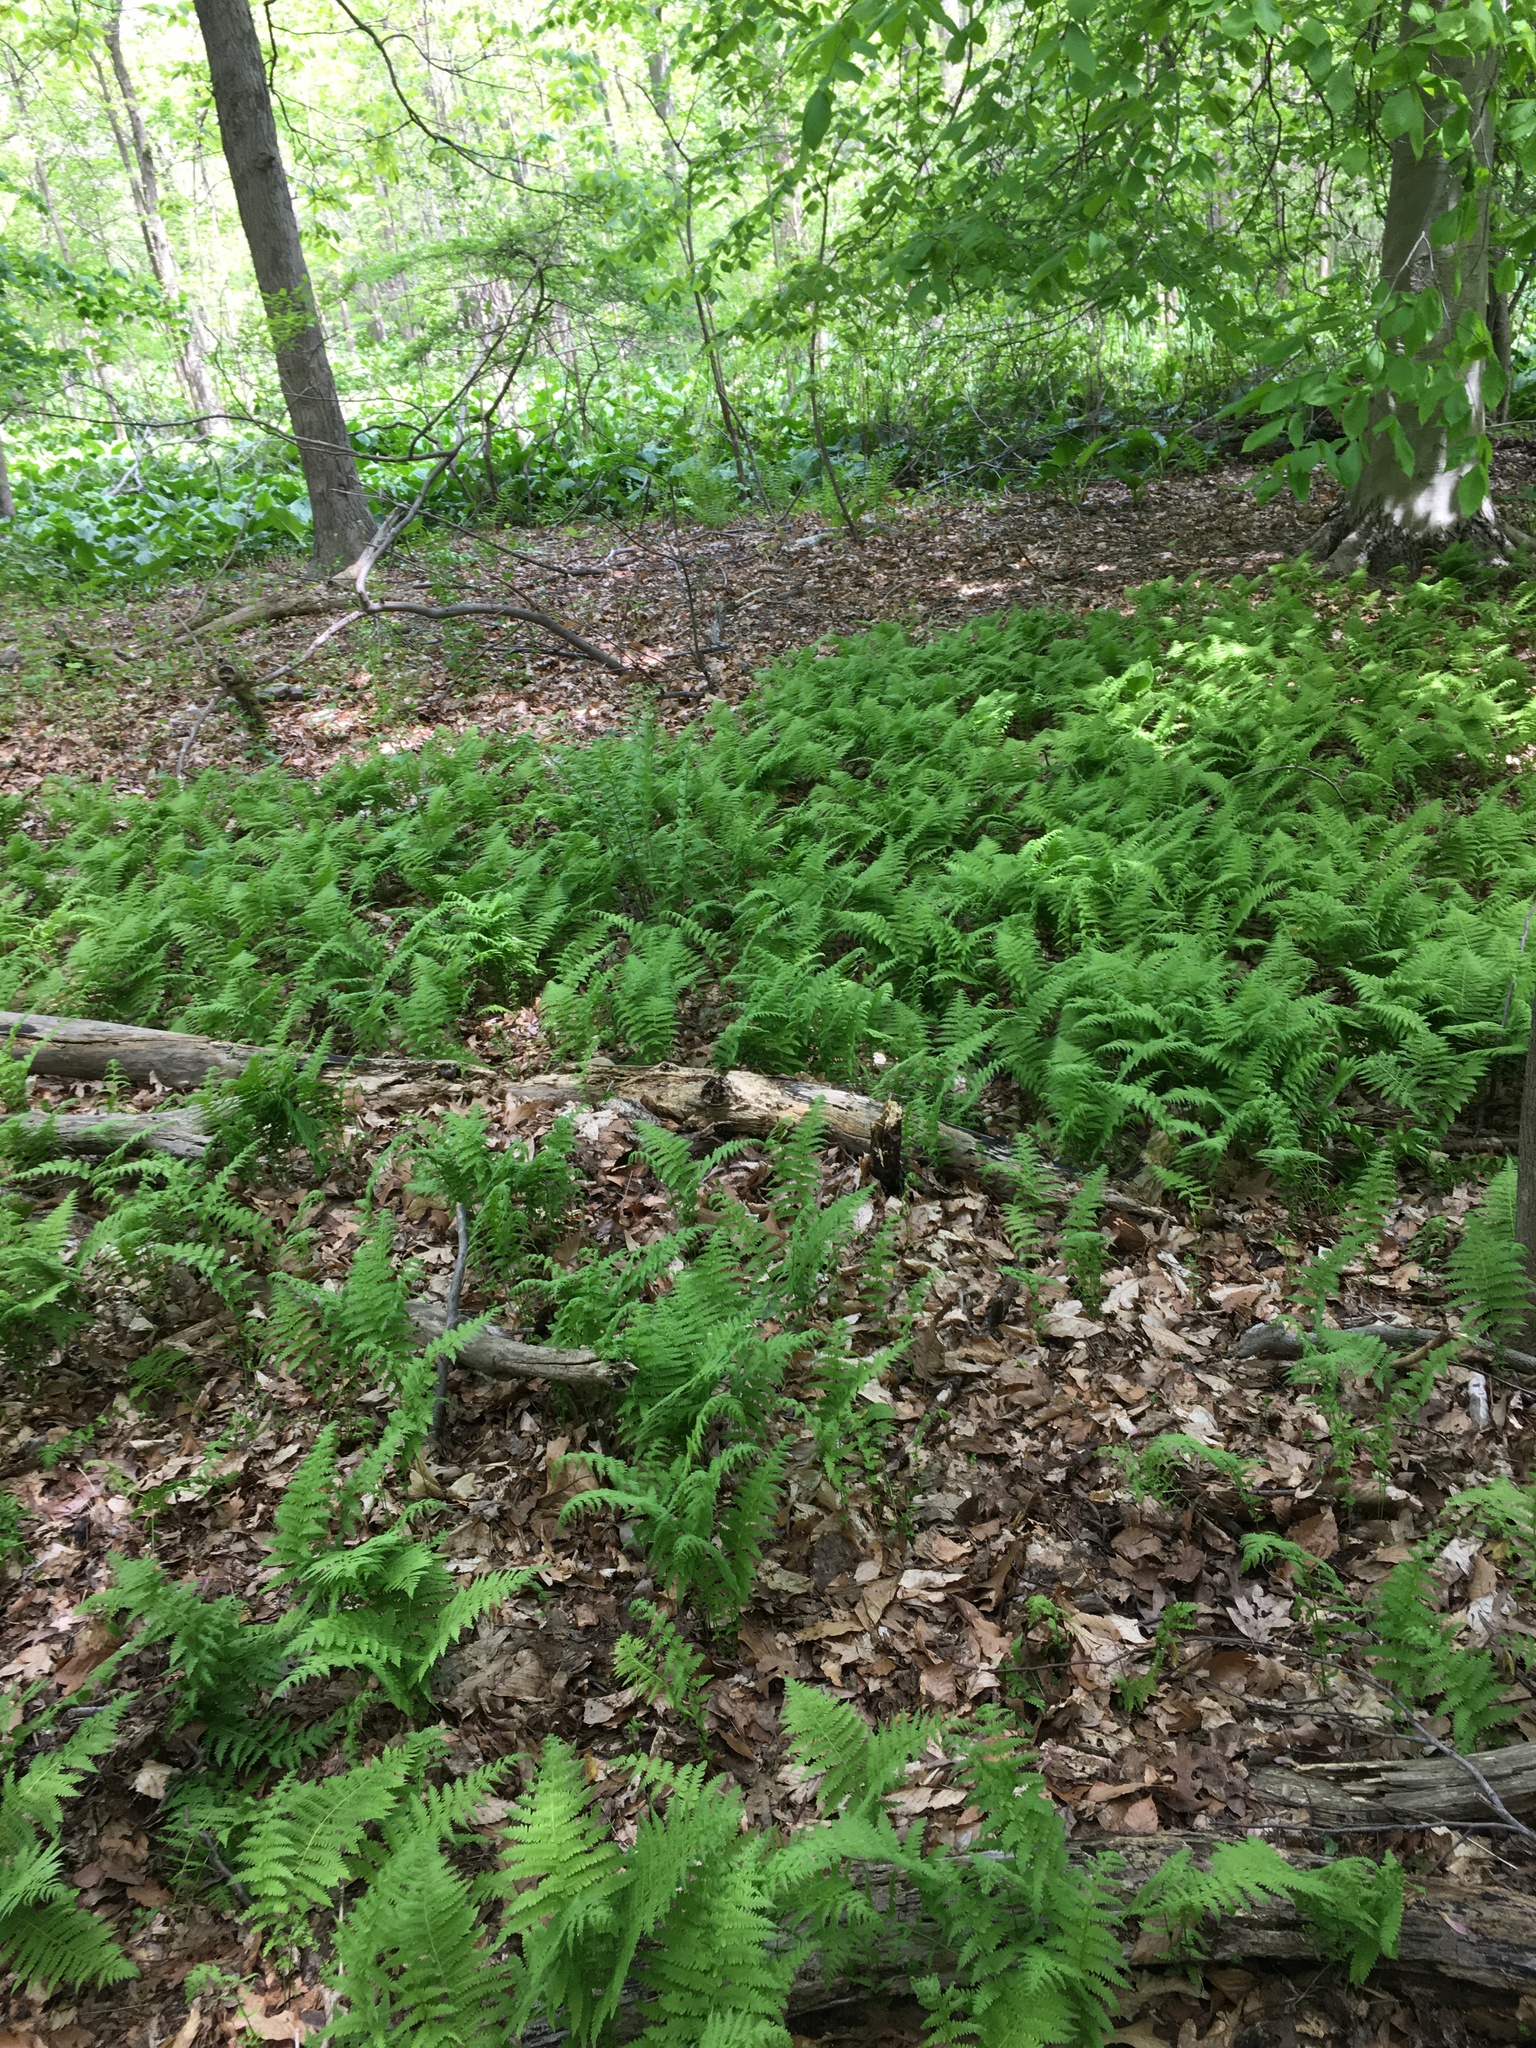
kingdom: Plantae
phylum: Tracheophyta
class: Polypodiopsida
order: Polypodiales
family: Thelypteridaceae
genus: Amauropelta
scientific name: Amauropelta noveboracensis
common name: New york fern
